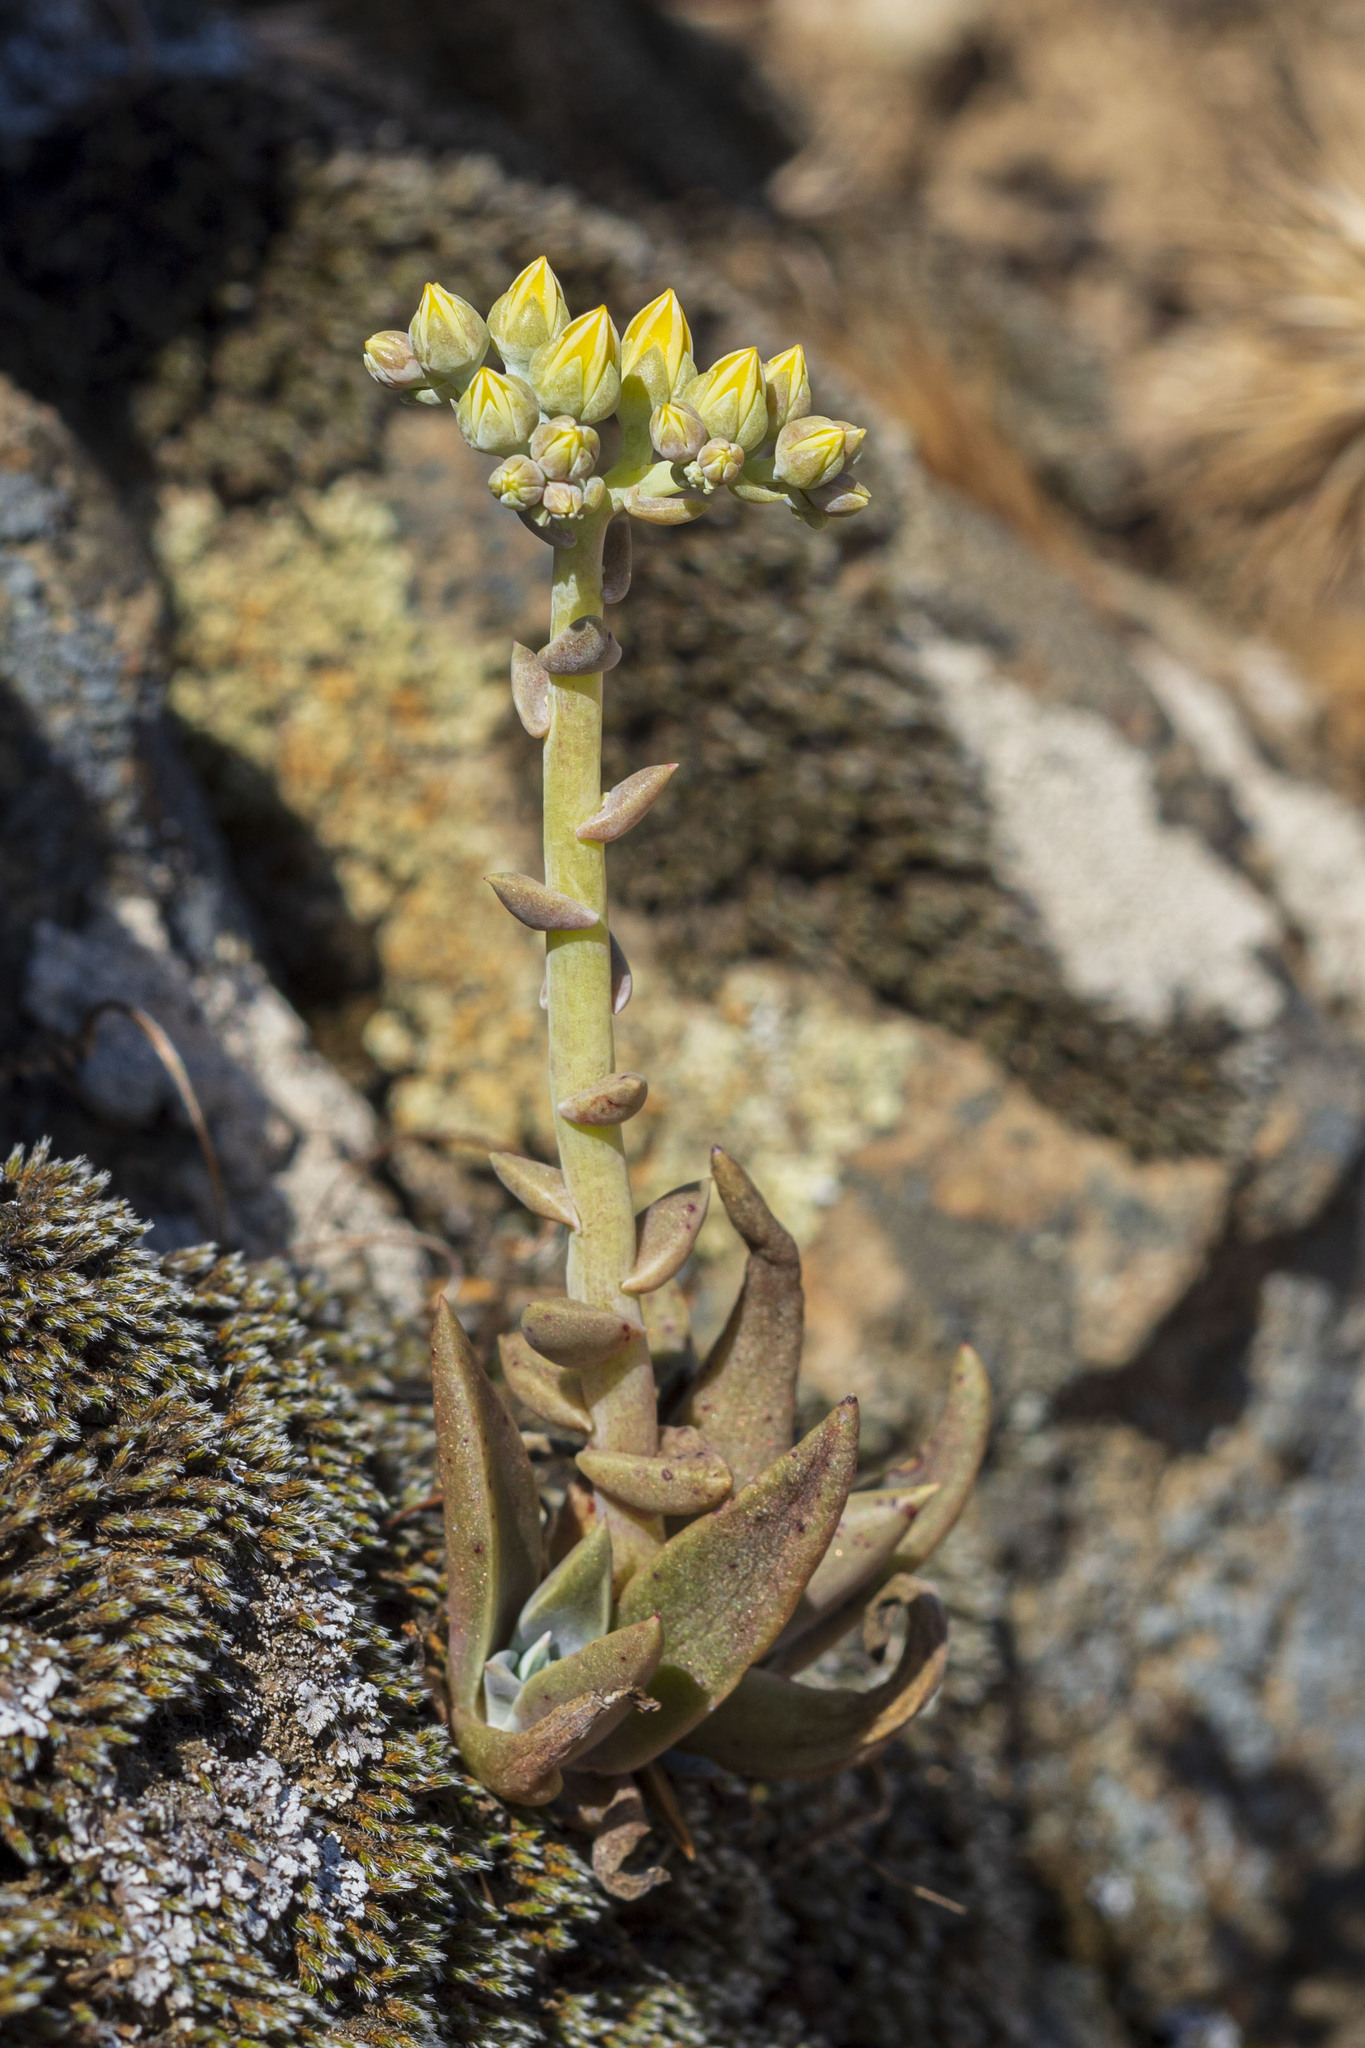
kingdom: Plantae
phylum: Tracheophyta
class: Magnoliopsida
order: Saxifragales
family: Crassulaceae
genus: Dudleya
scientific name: Dudleya cymosa
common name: Canyon dudleya
